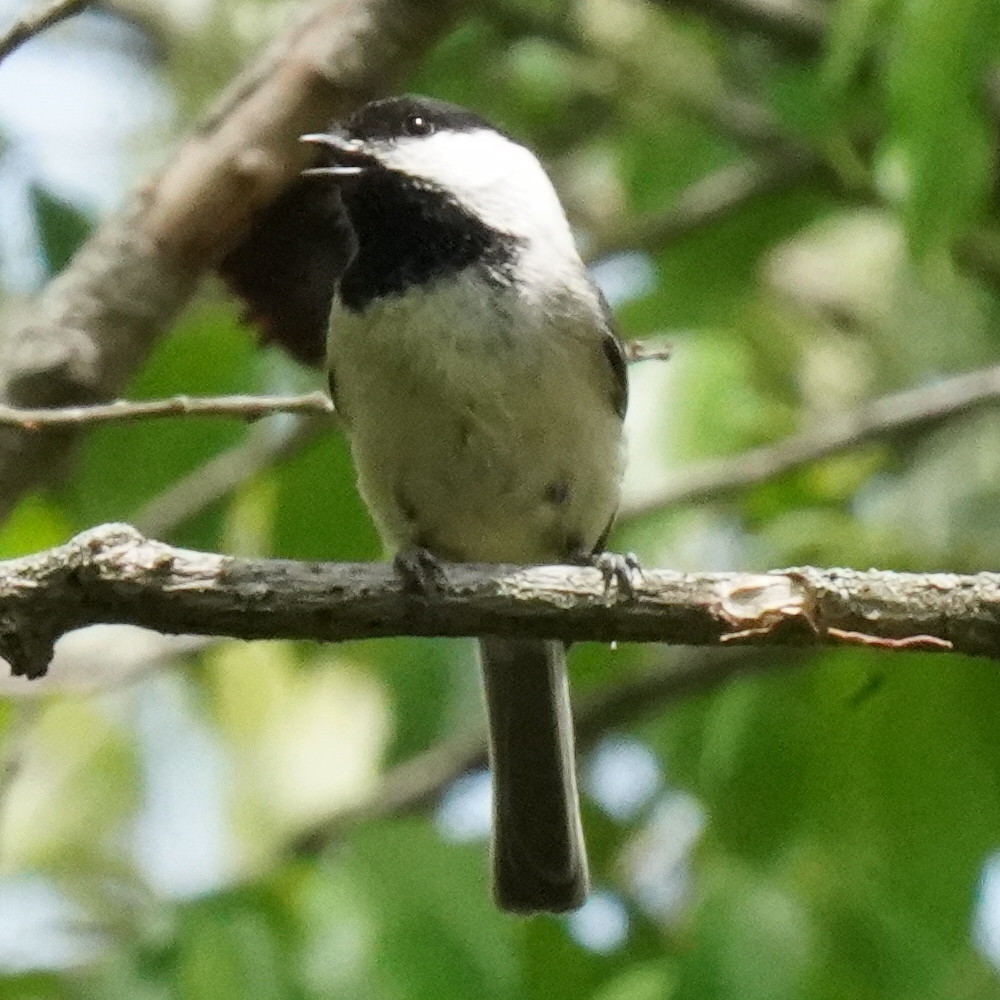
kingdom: Animalia
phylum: Chordata
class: Aves
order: Passeriformes
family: Paridae
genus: Poecile
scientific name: Poecile carolinensis
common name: Carolina chickadee
